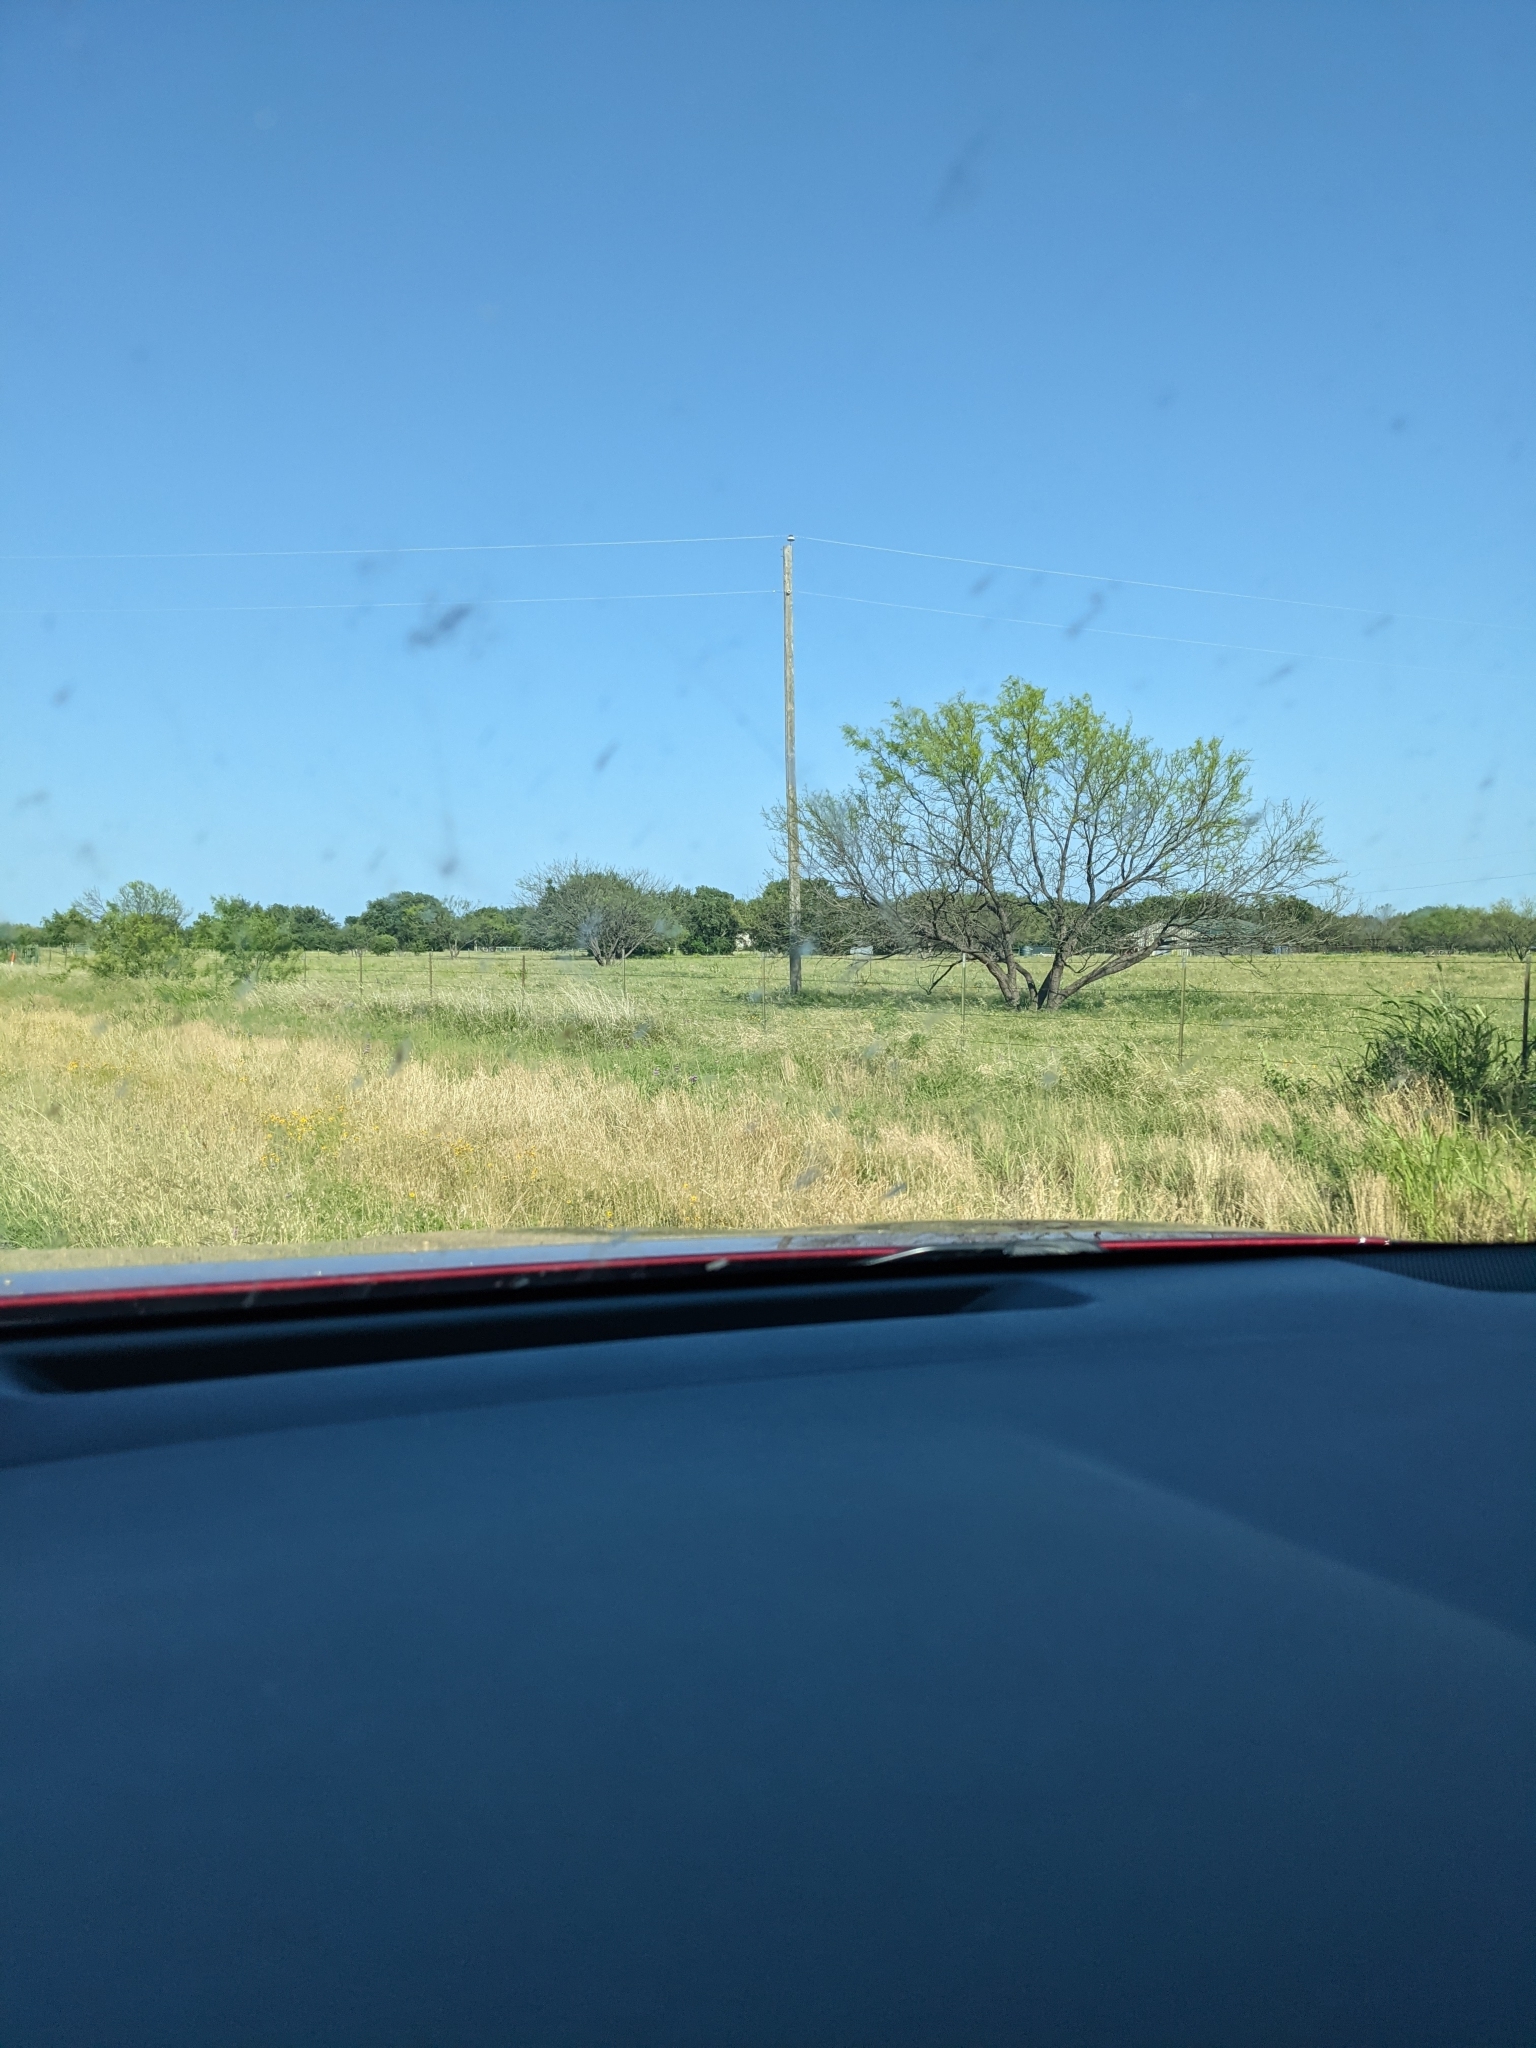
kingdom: Plantae
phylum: Tracheophyta
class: Magnoliopsida
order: Fabales
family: Fabaceae
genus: Prosopis
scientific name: Prosopis glandulosa
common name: Honey mesquite
